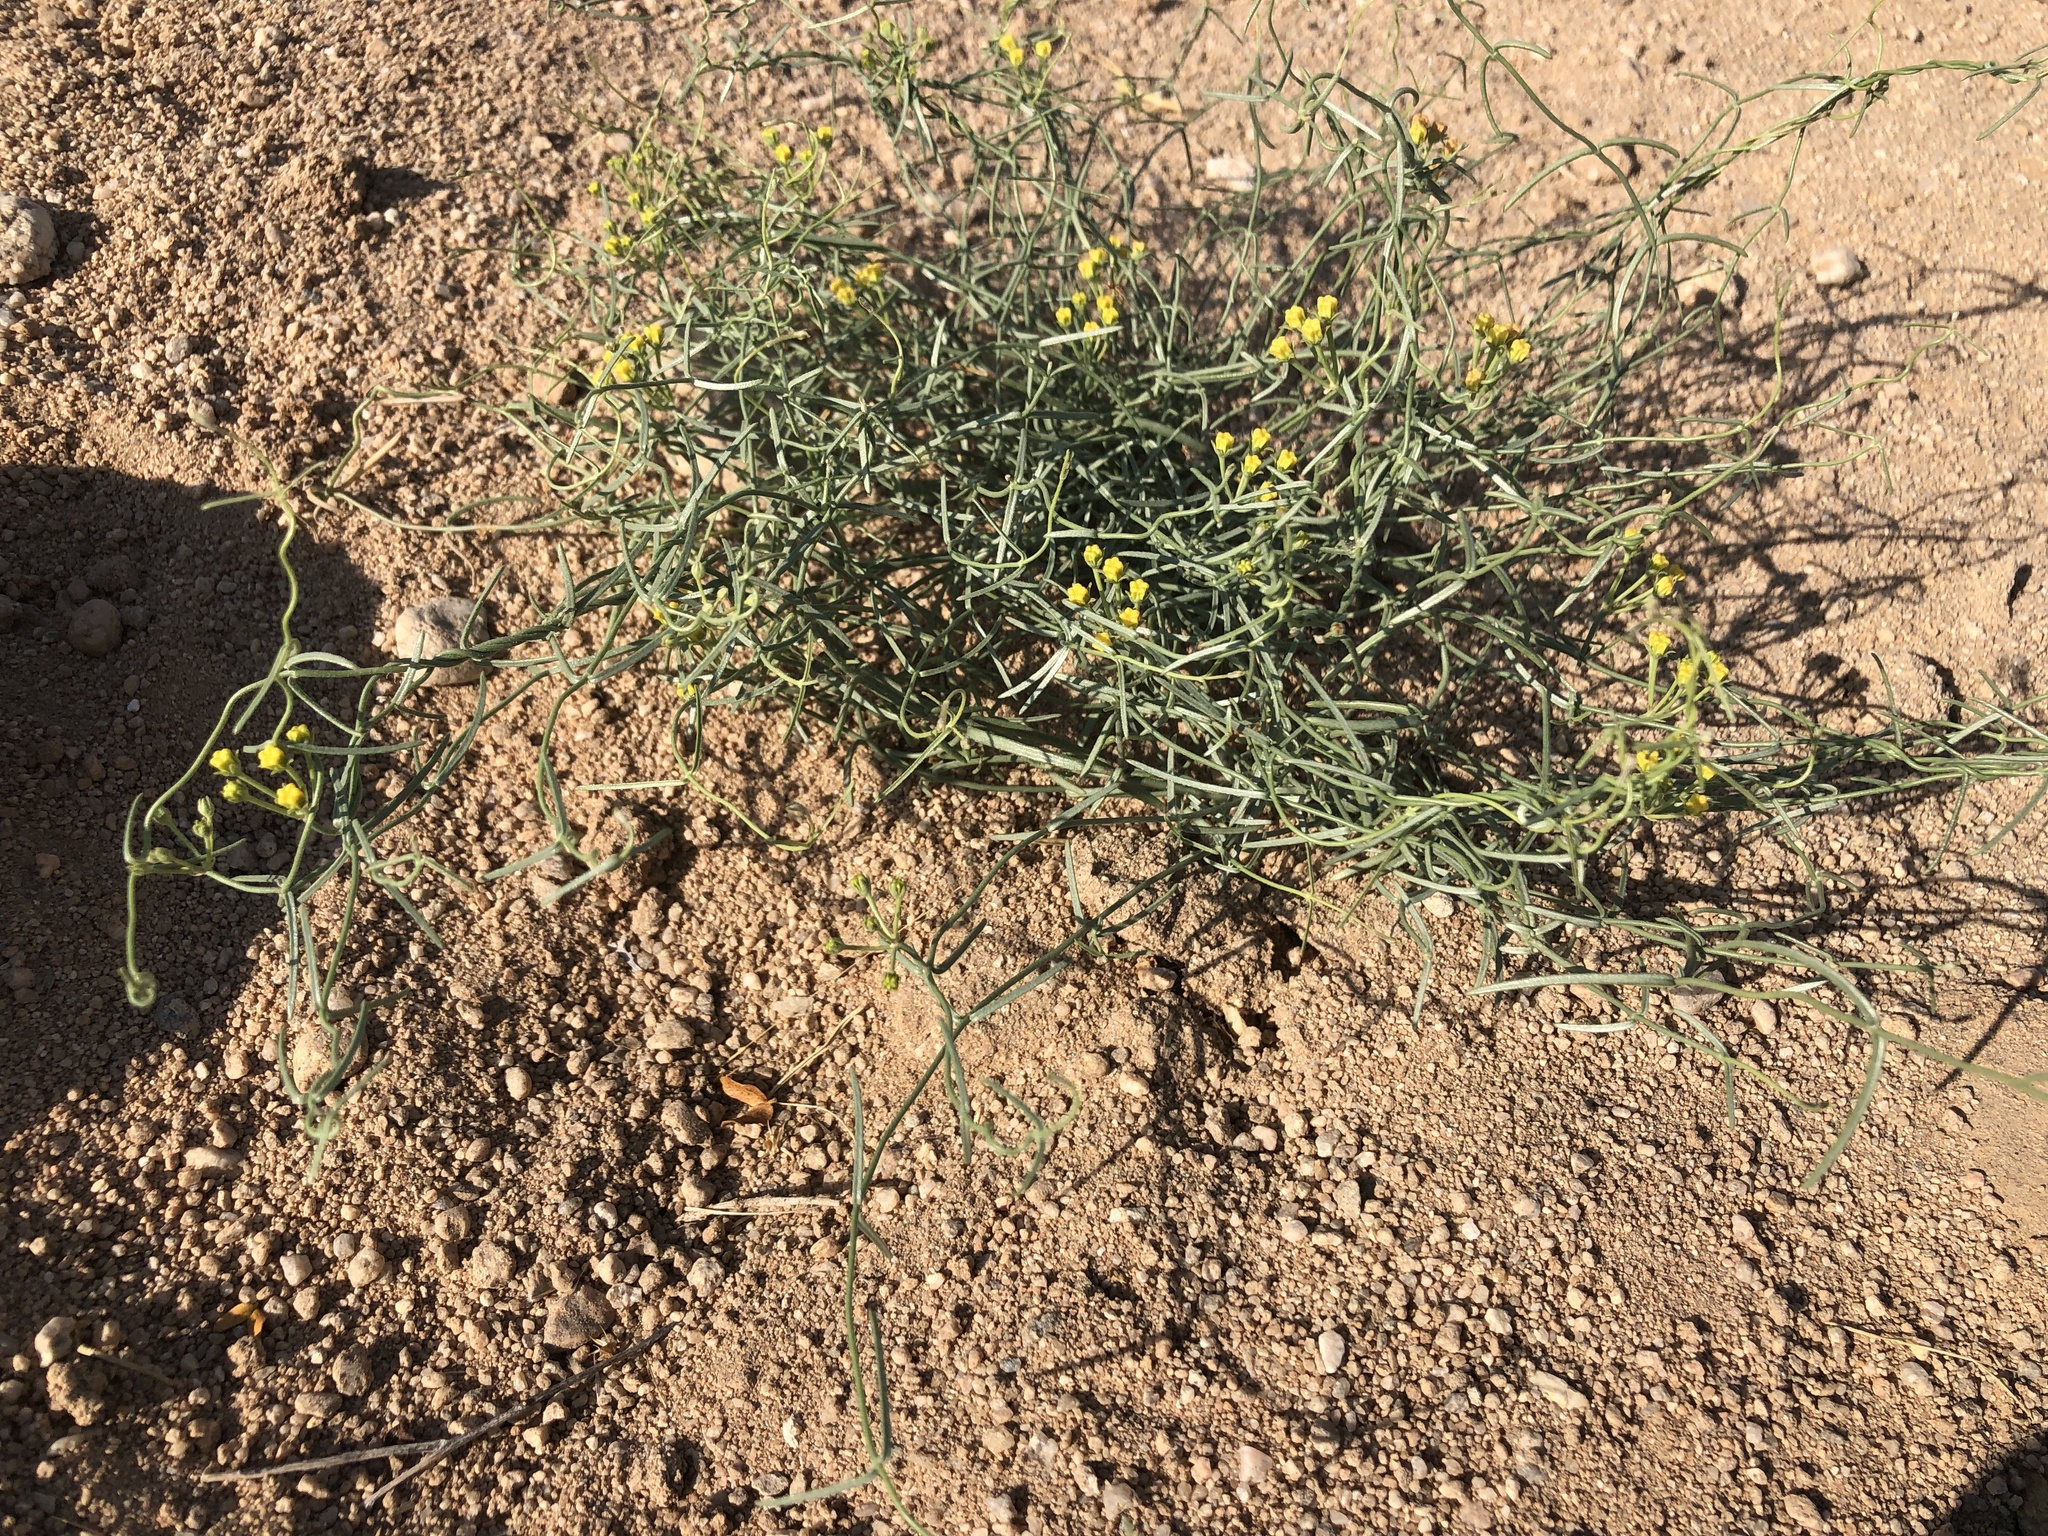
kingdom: Plantae
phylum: Tracheophyta
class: Magnoliopsida
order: Gentianales
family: Apocynaceae
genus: Funastrum
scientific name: Funastrum utahense
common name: Utah swallow-wort
